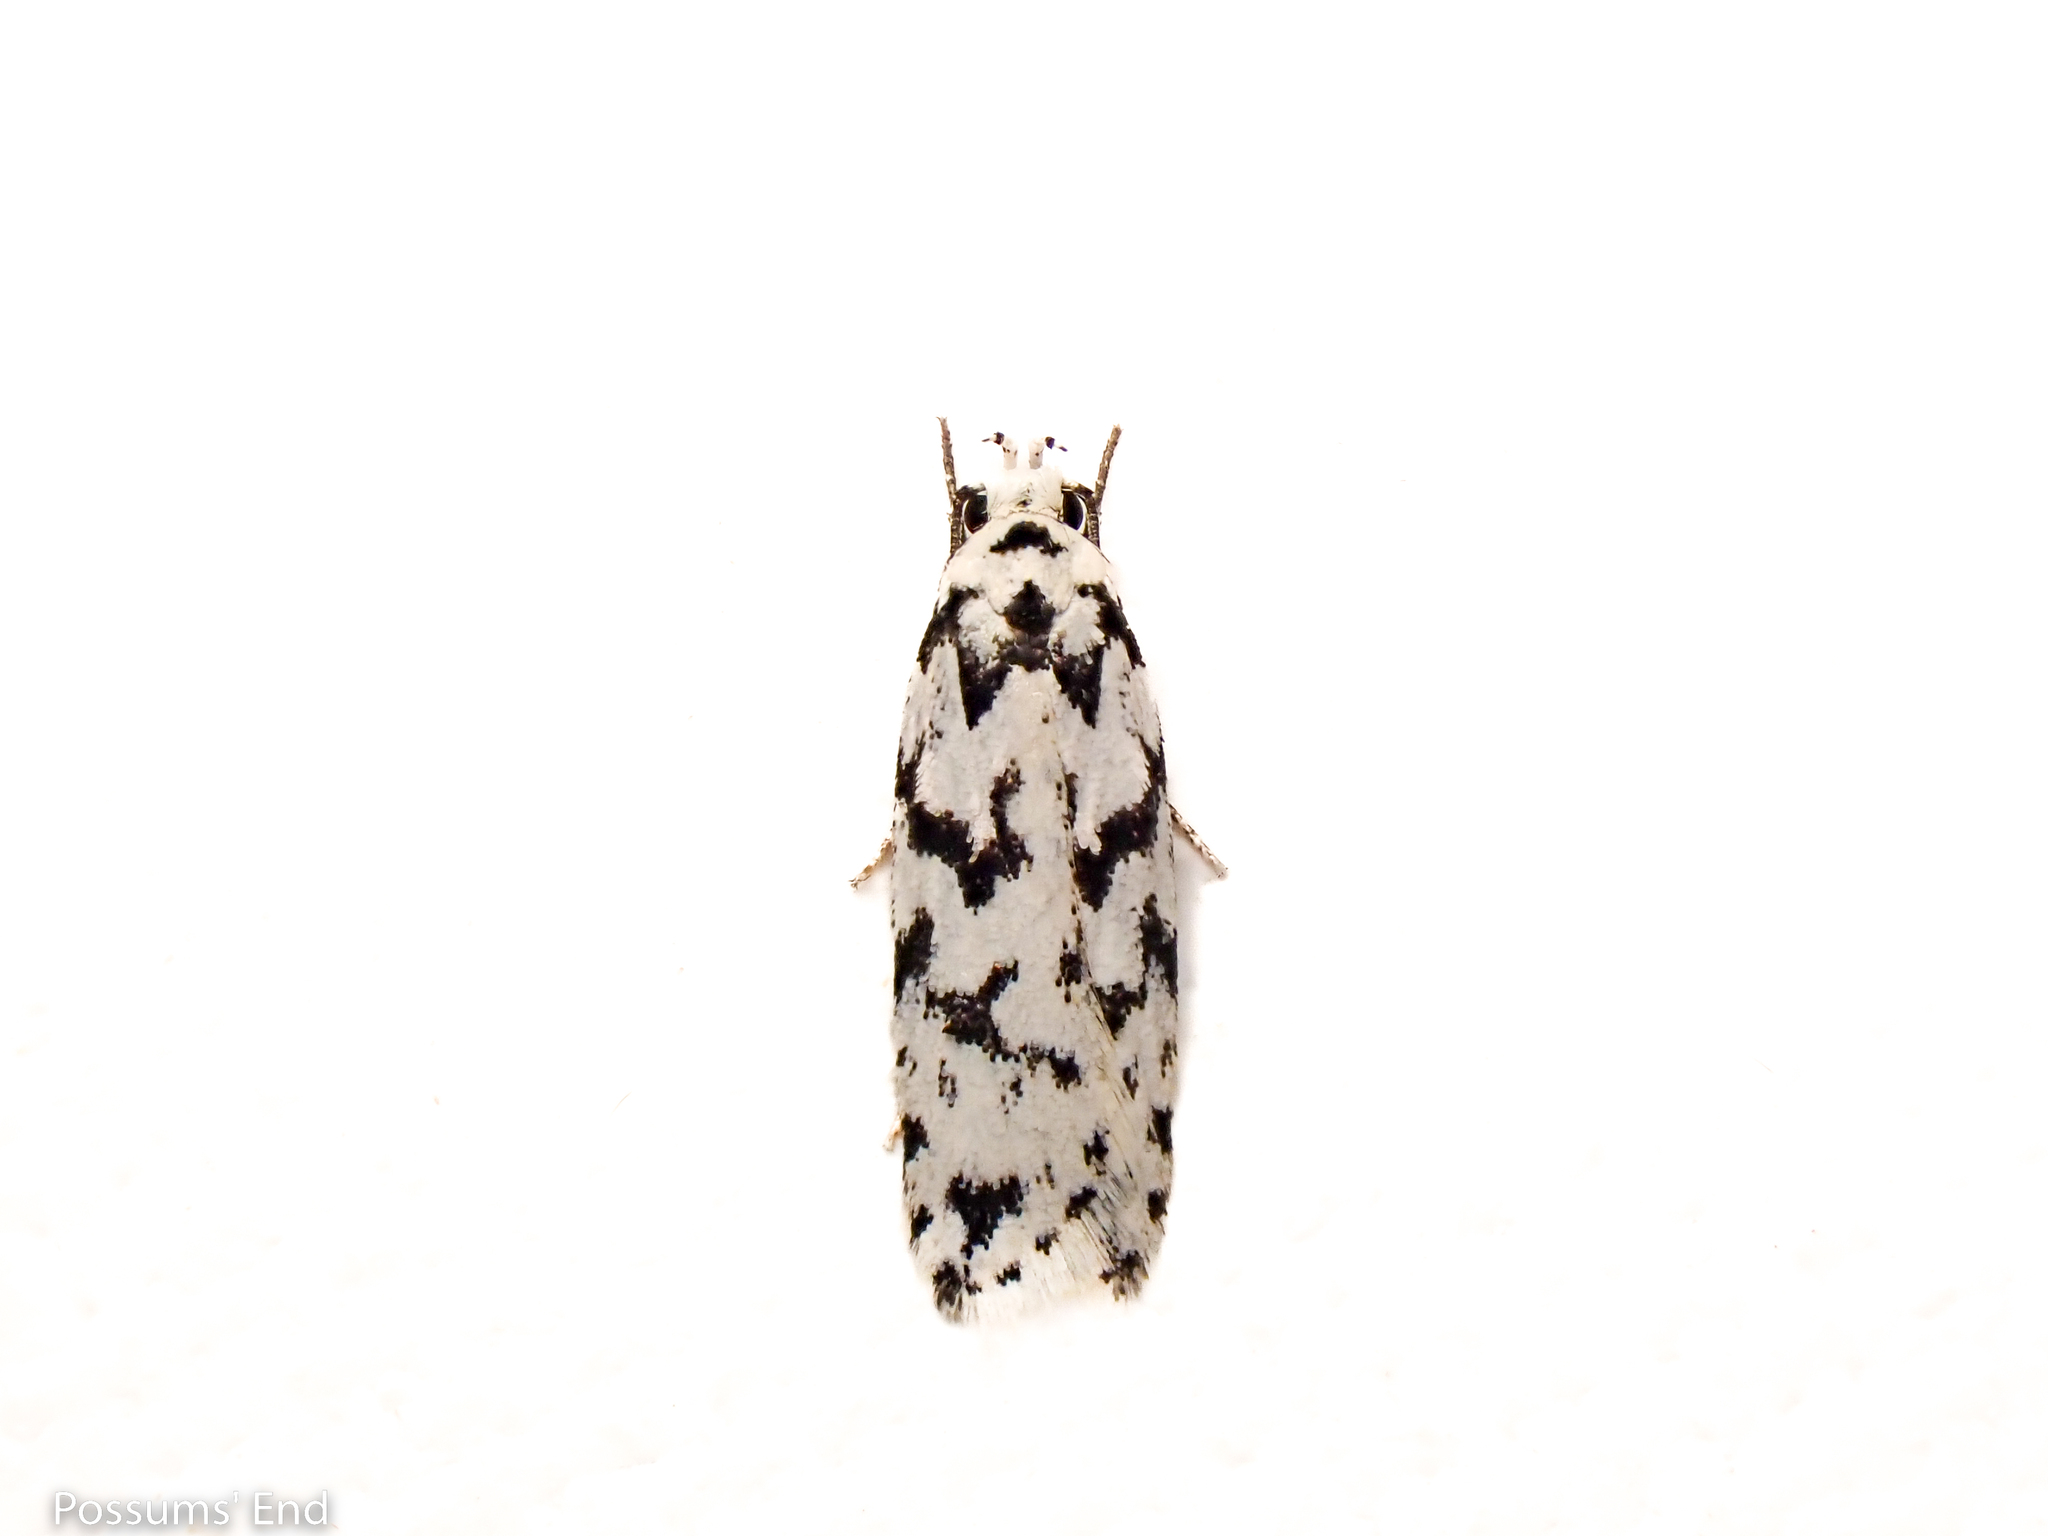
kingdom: Animalia
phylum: Arthropoda
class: Insecta
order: Lepidoptera
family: Oecophoridae
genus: Izatha
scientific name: Izatha katadiktya
